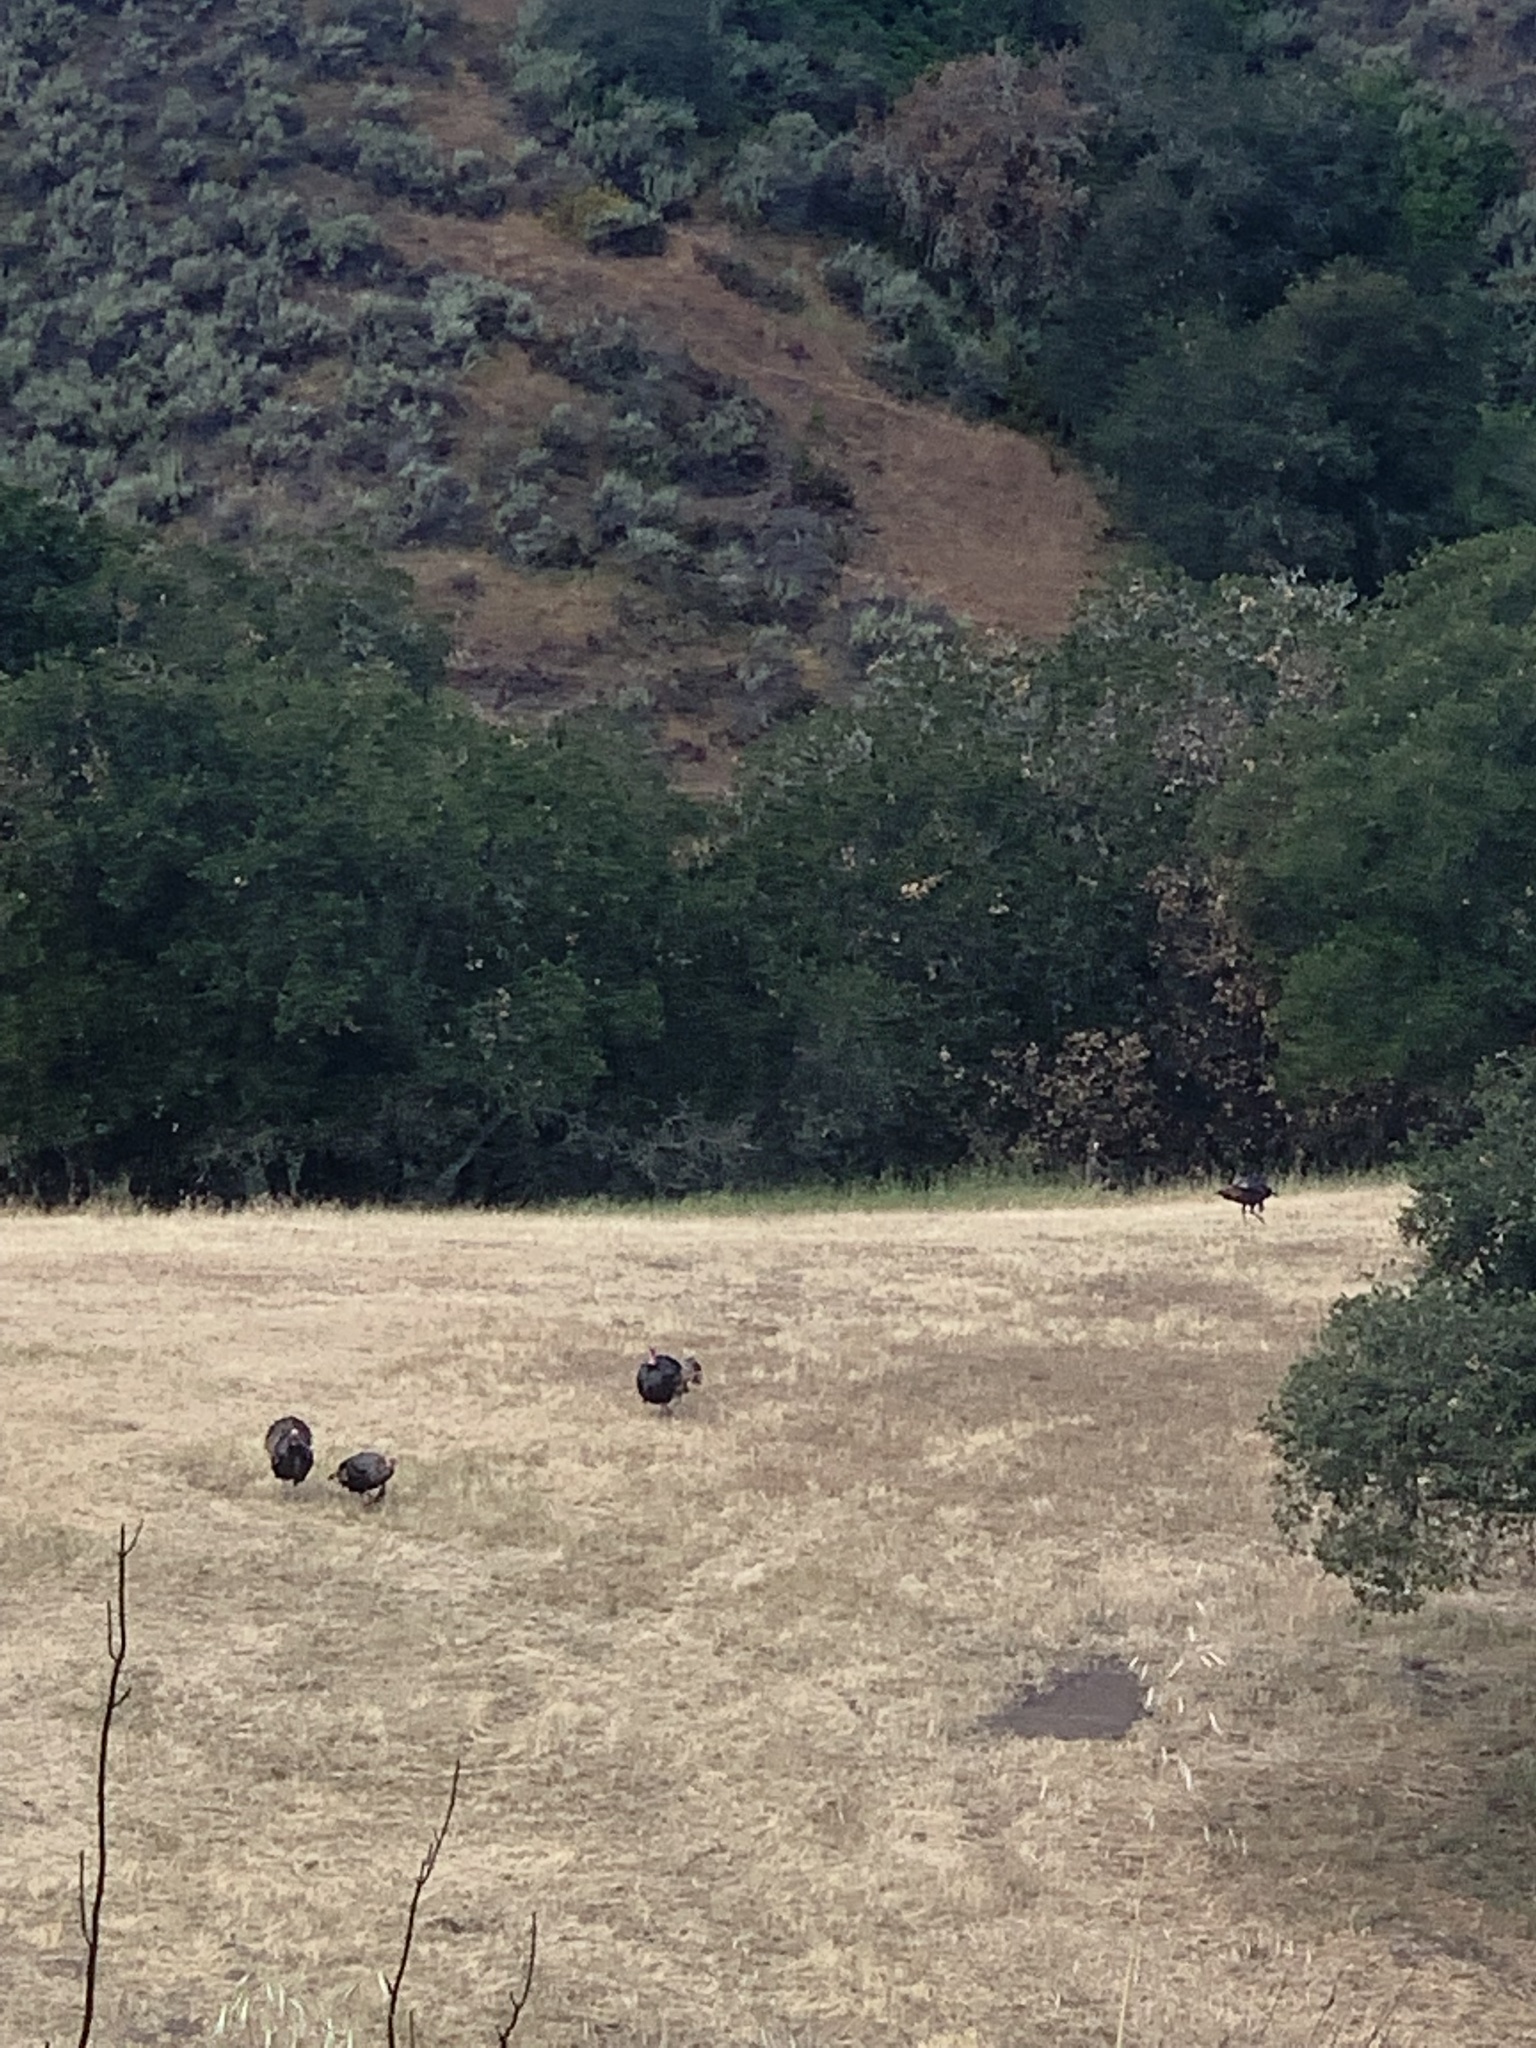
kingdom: Animalia
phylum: Chordata
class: Aves
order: Galliformes
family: Phasianidae
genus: Meleagris
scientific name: Meleagris gallopavo
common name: Wild turkey
